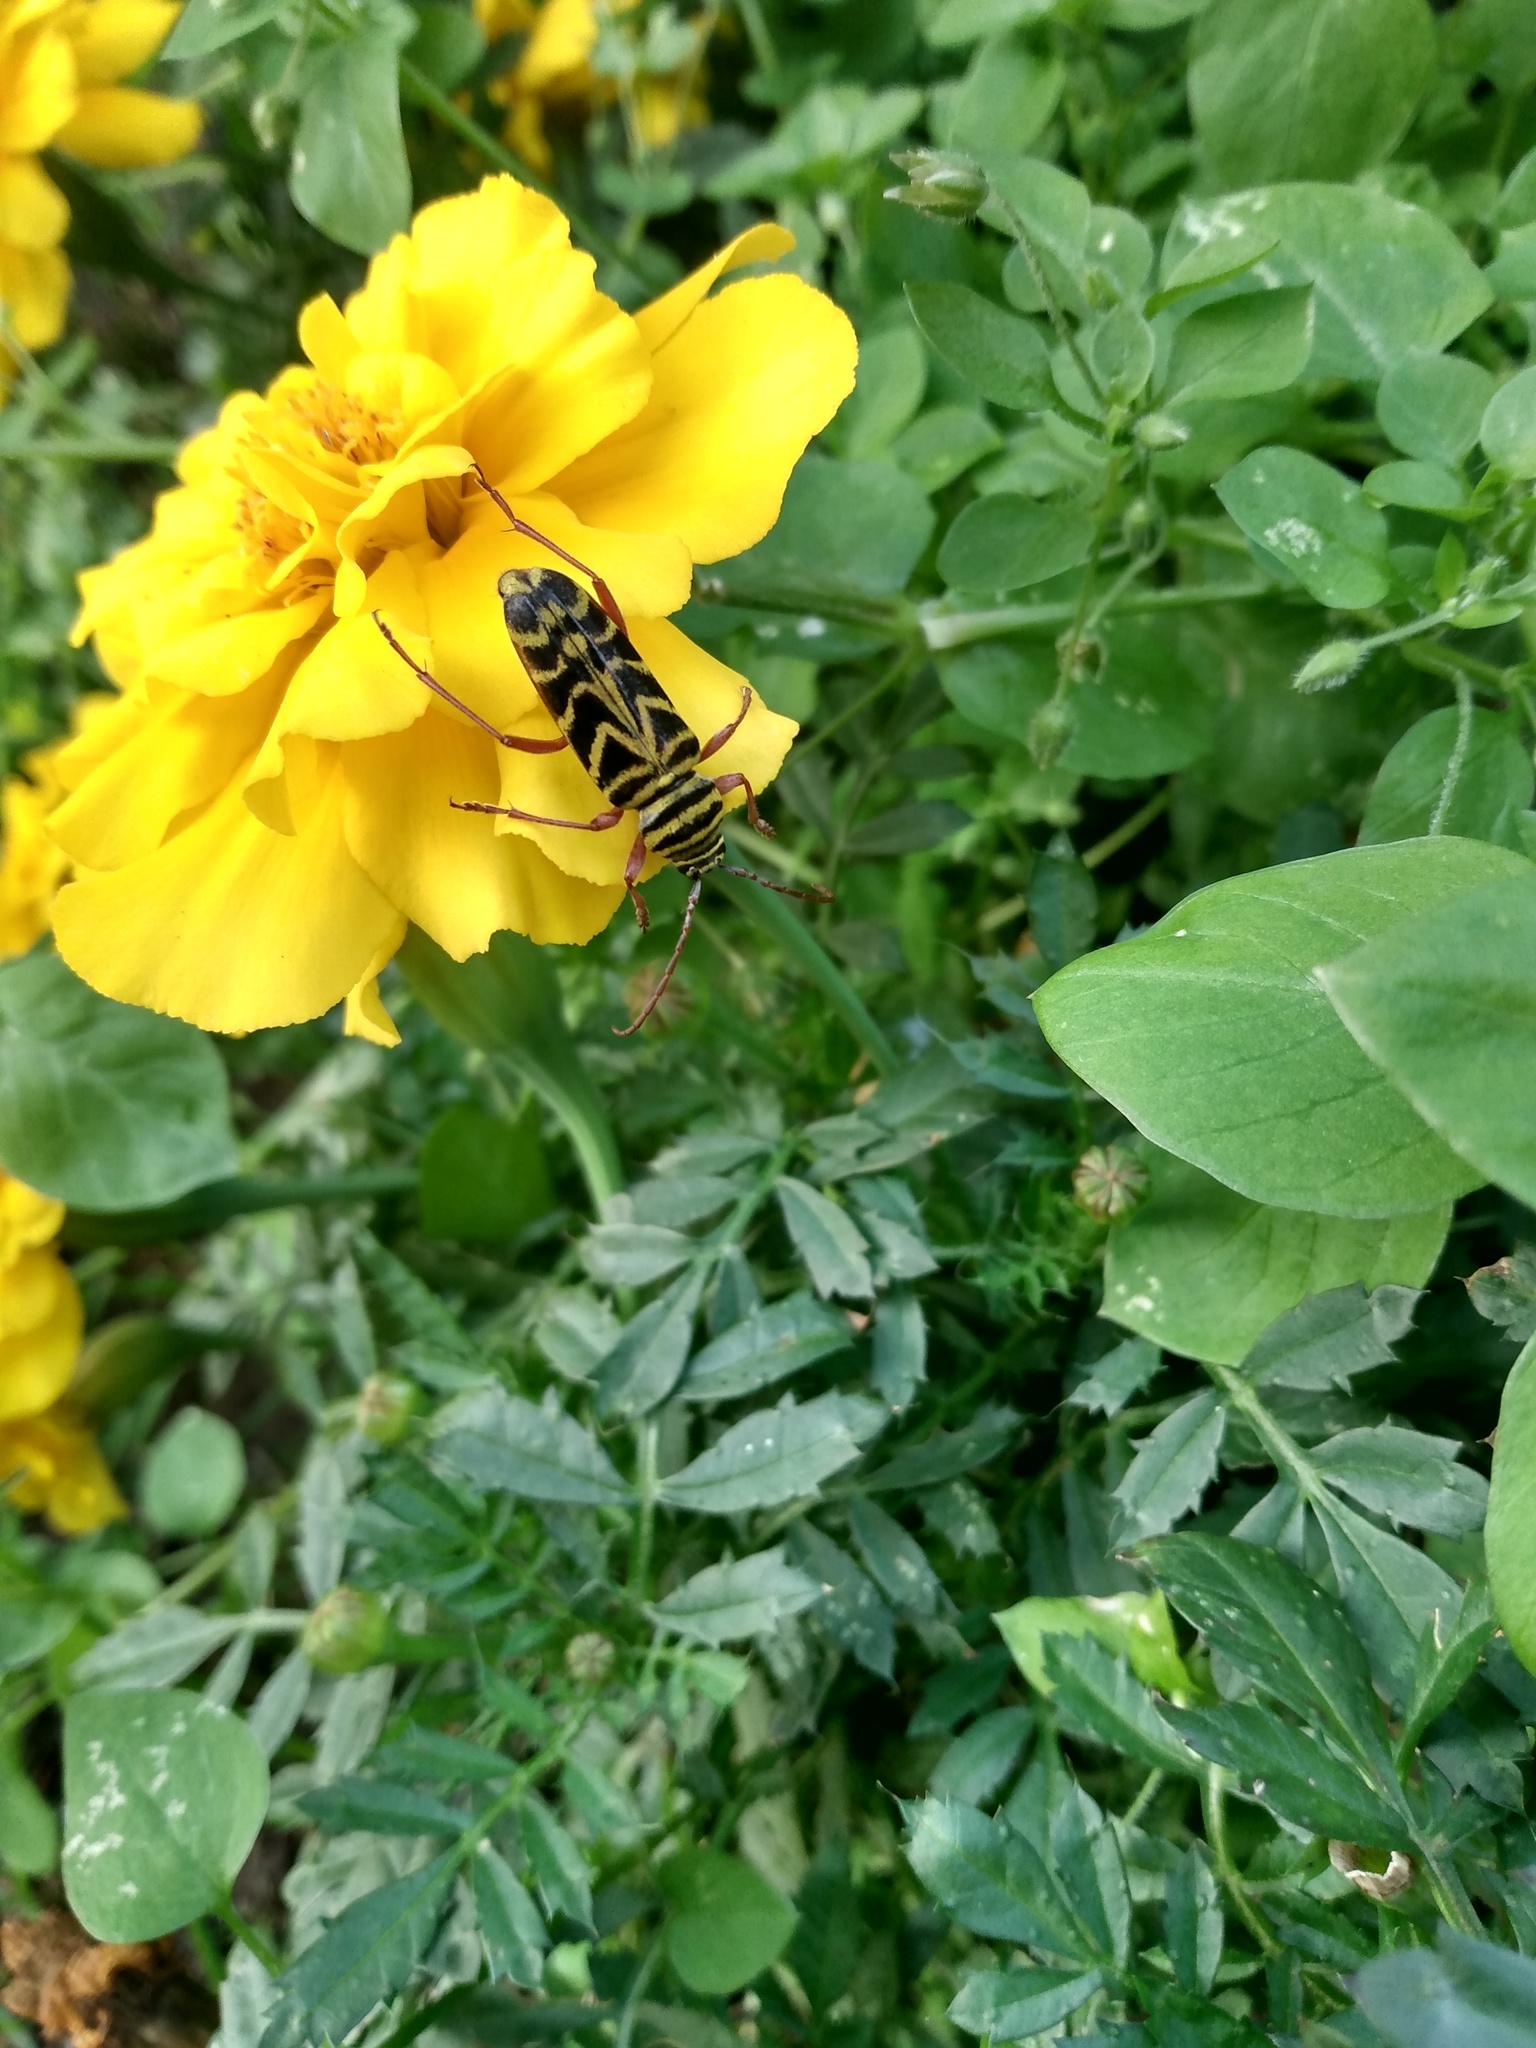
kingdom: Animalia
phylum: Arthropoda
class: Insecta
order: Coleoptera
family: Cerambycidae
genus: Megacyllene
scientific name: Megacyllene robiniae
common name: Locust borer
